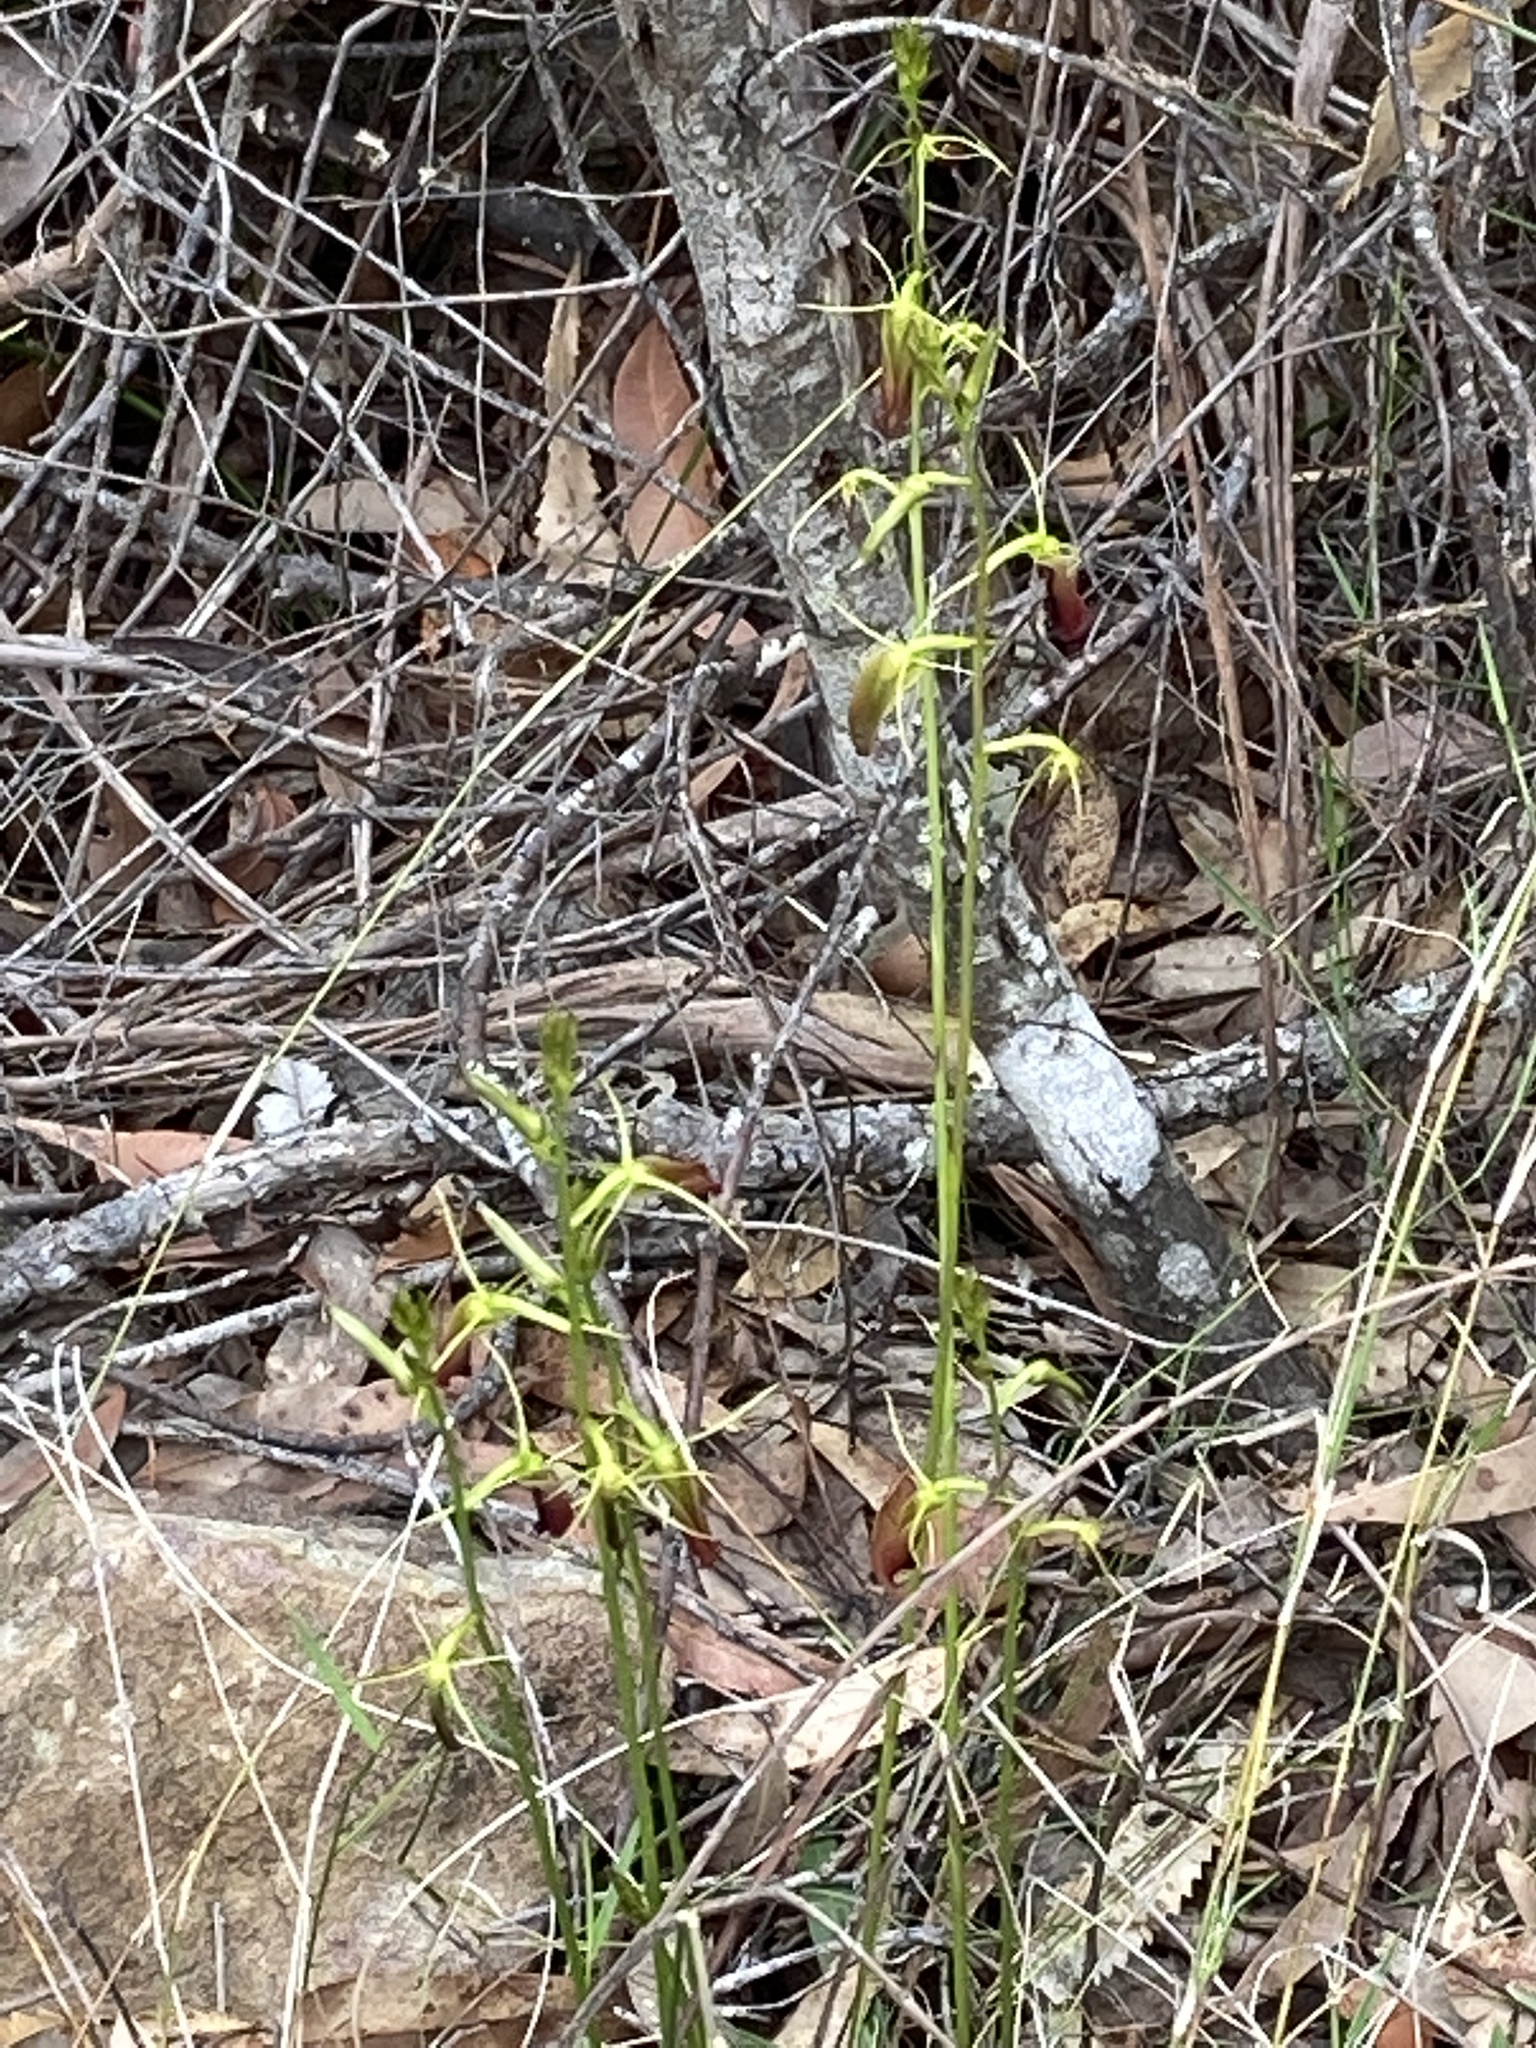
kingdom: Plantae
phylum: Tracheophyta
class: Liliopsida
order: Asparagales
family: Orchidaceae
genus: Cryptostylis
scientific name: Cryptostylis subulata
